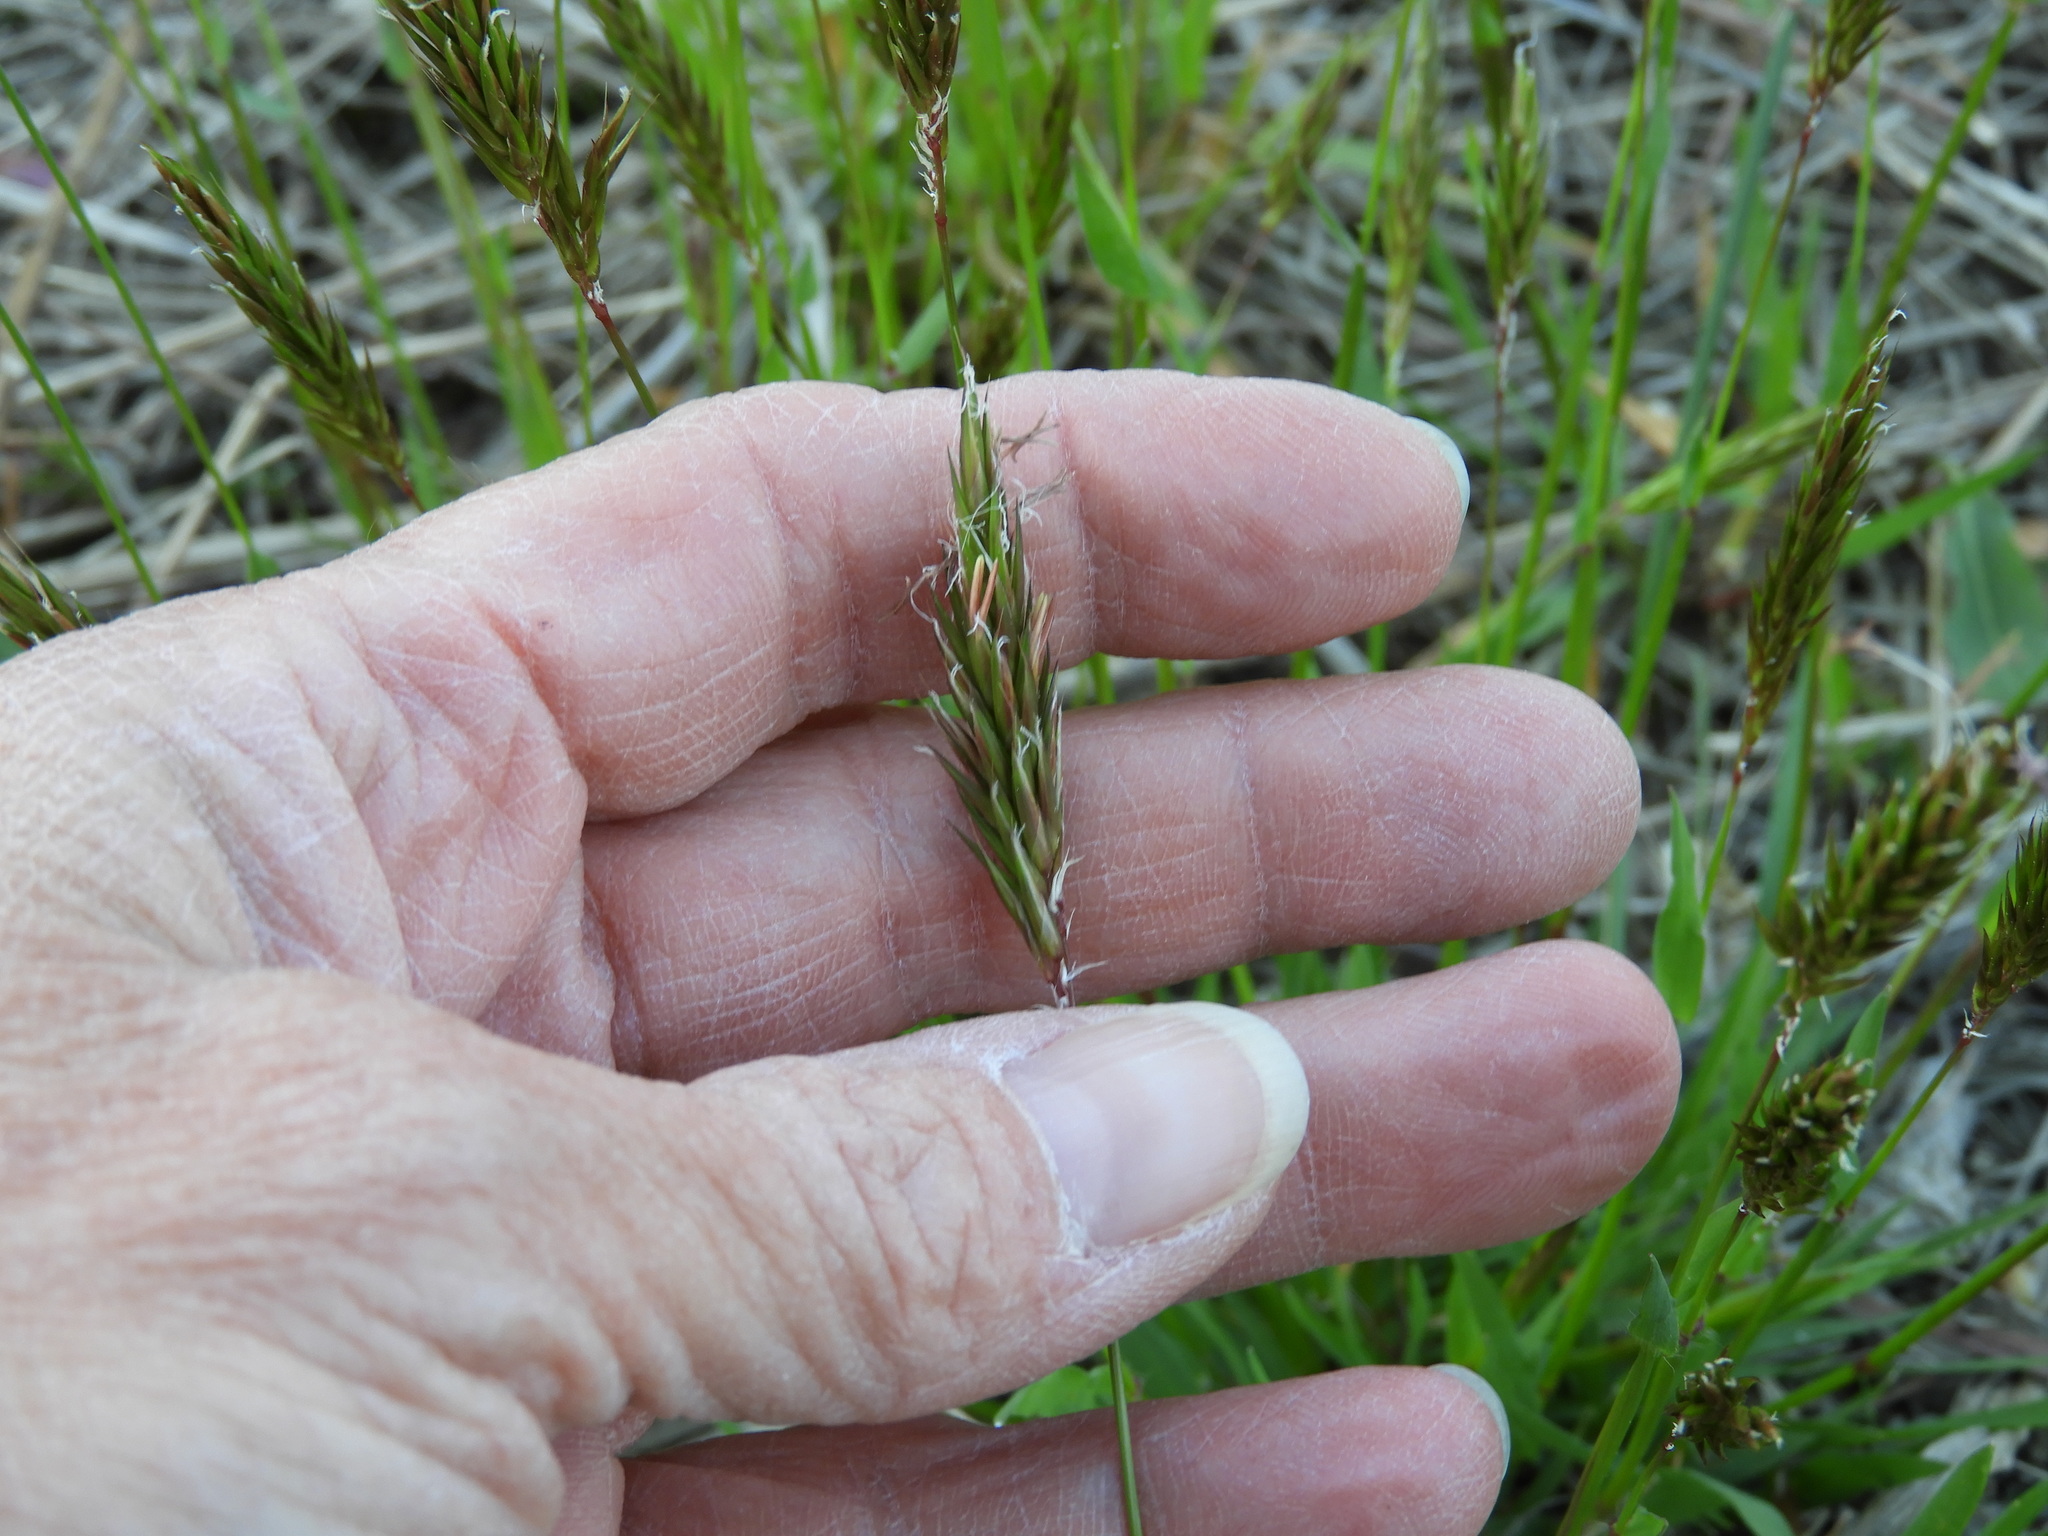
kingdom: Plantae
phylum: Tracheophyta
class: Liliopsida
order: Poales
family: Poaceae
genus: Anthoxanthum
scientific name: Anthoxanthum odoratum
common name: Sweet vernalgrass
